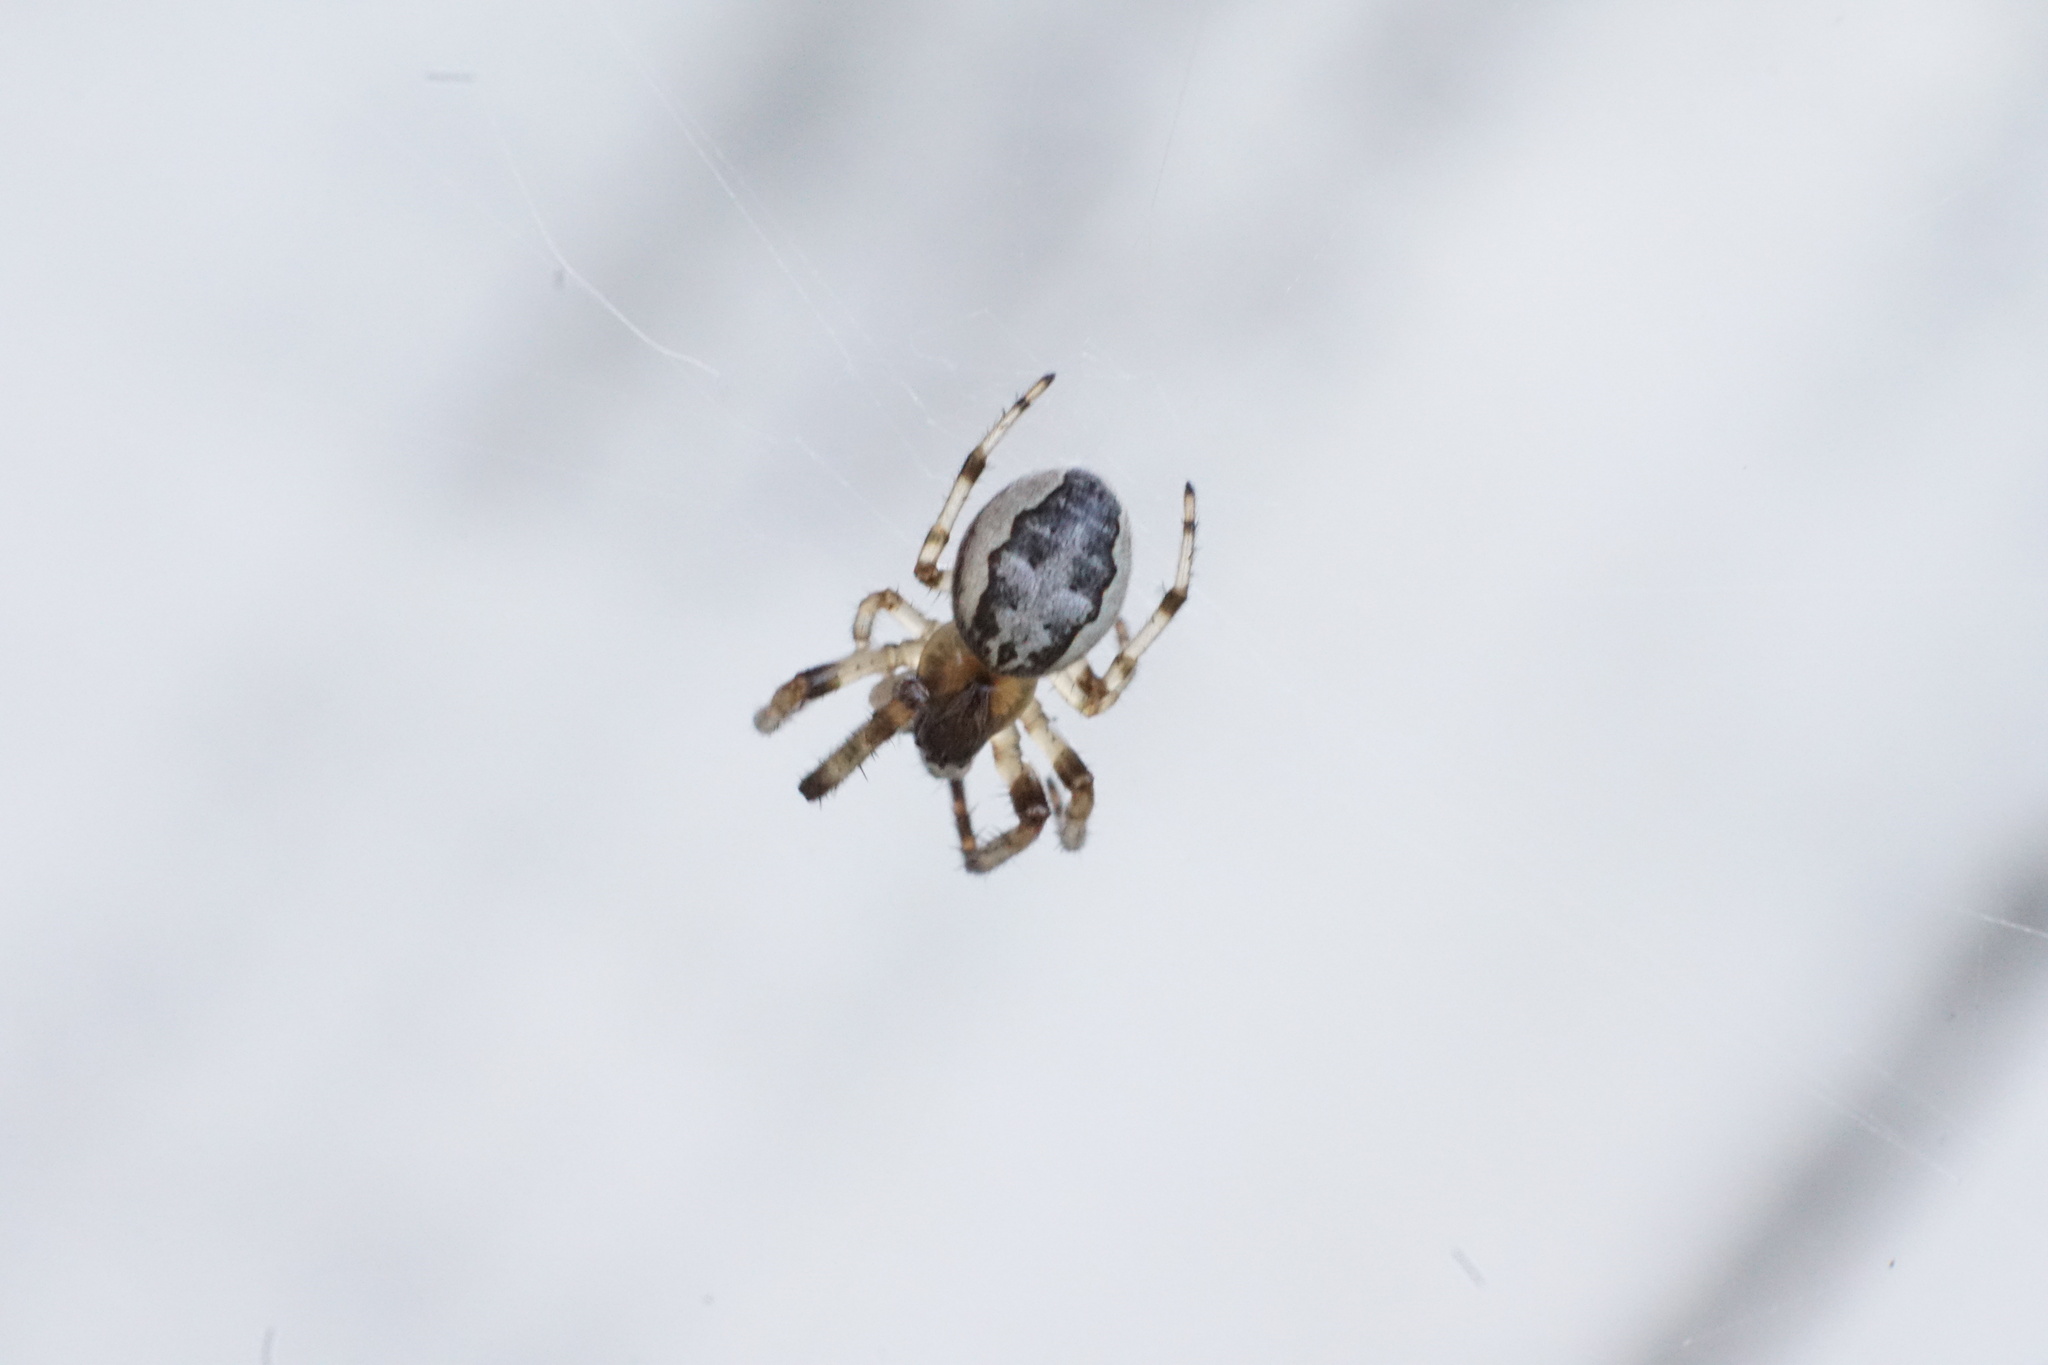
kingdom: Animalia
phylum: Arthropoda
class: Arachnida
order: Araneae
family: Araneidae
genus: Larinioides
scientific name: Larinioides cornutus
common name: Furrow orbweaver
